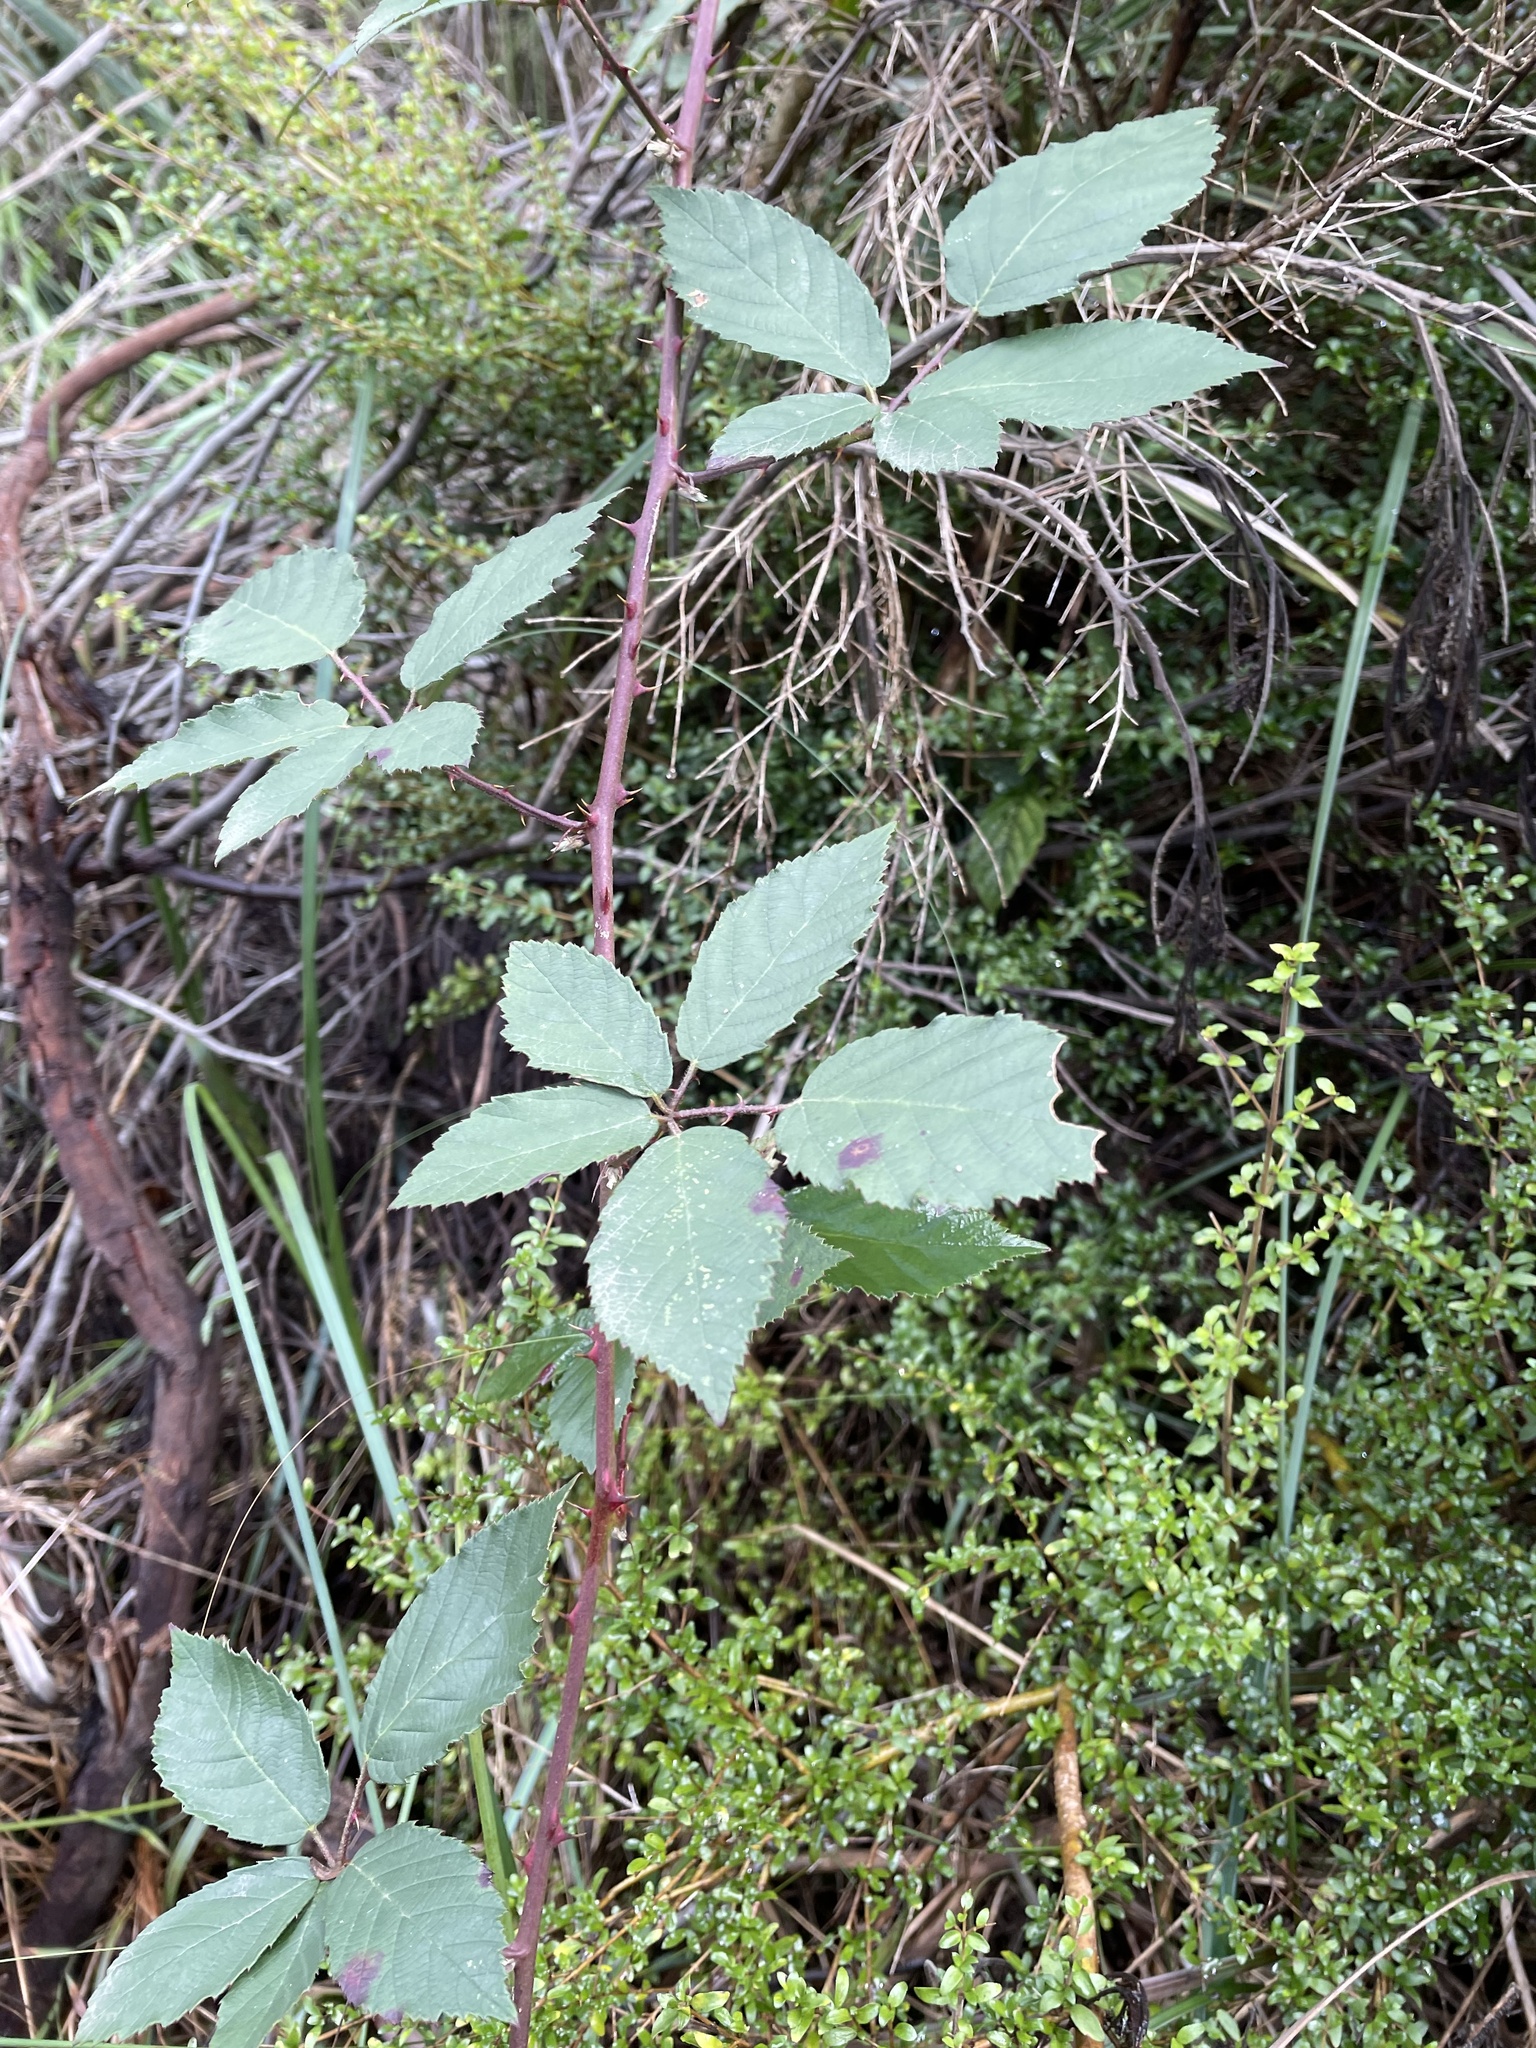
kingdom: Plantae
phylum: Tracheophyta
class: Magnoliopsida
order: Rosales
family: Rosaceae
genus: Rubus
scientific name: Rubus grabowskii
